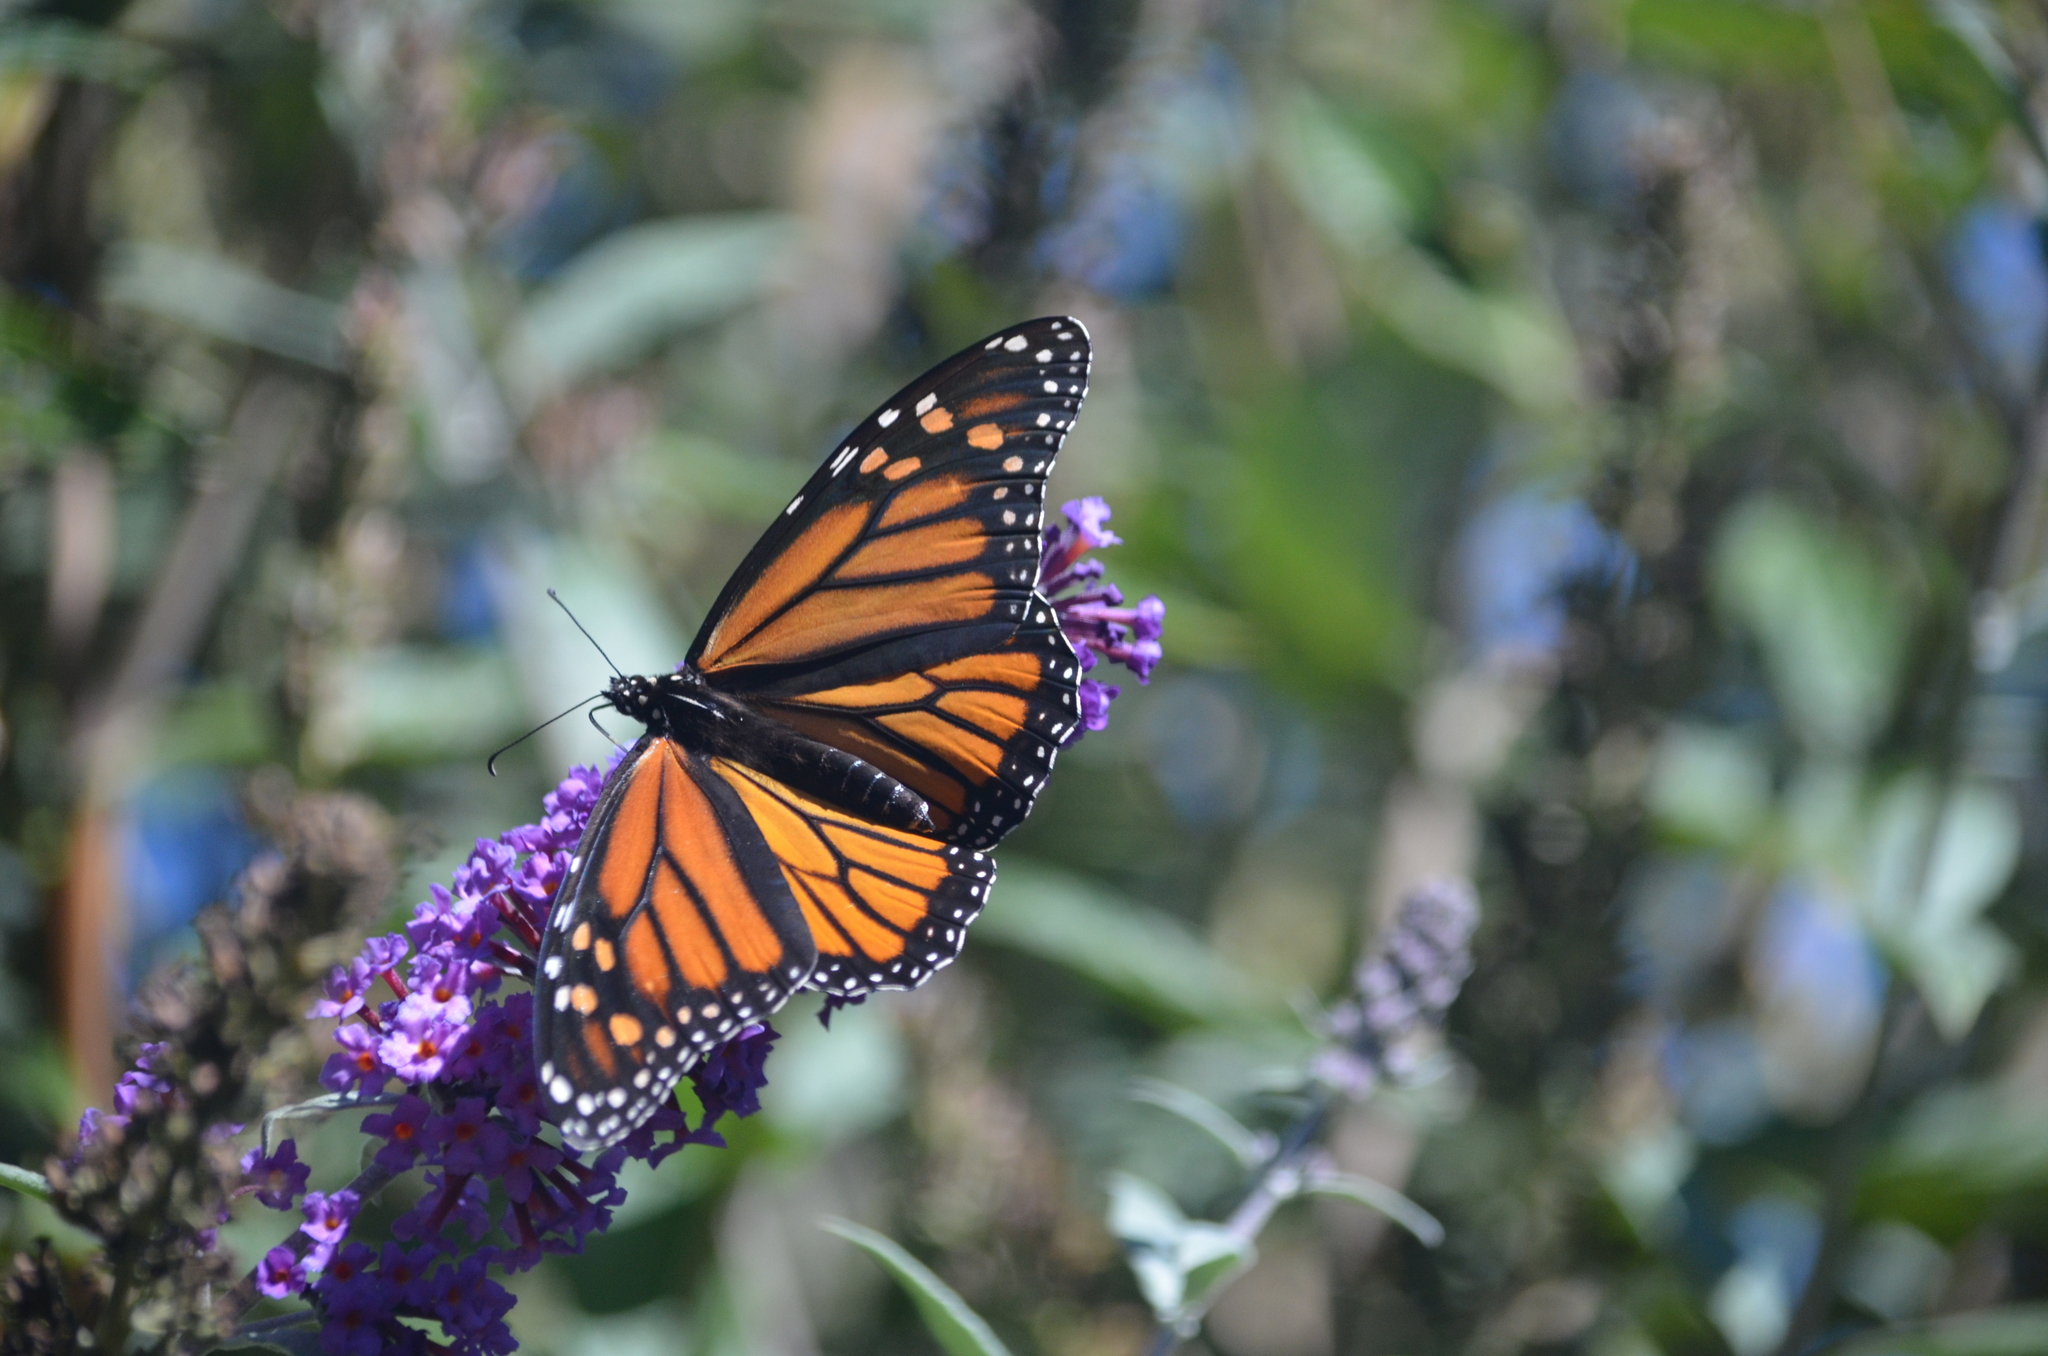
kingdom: Animalia
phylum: Arthropoda
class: Insecta
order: Lepidoptera
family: Nymphalidae
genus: Danaus
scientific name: Danaus plexippus
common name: Monarch
